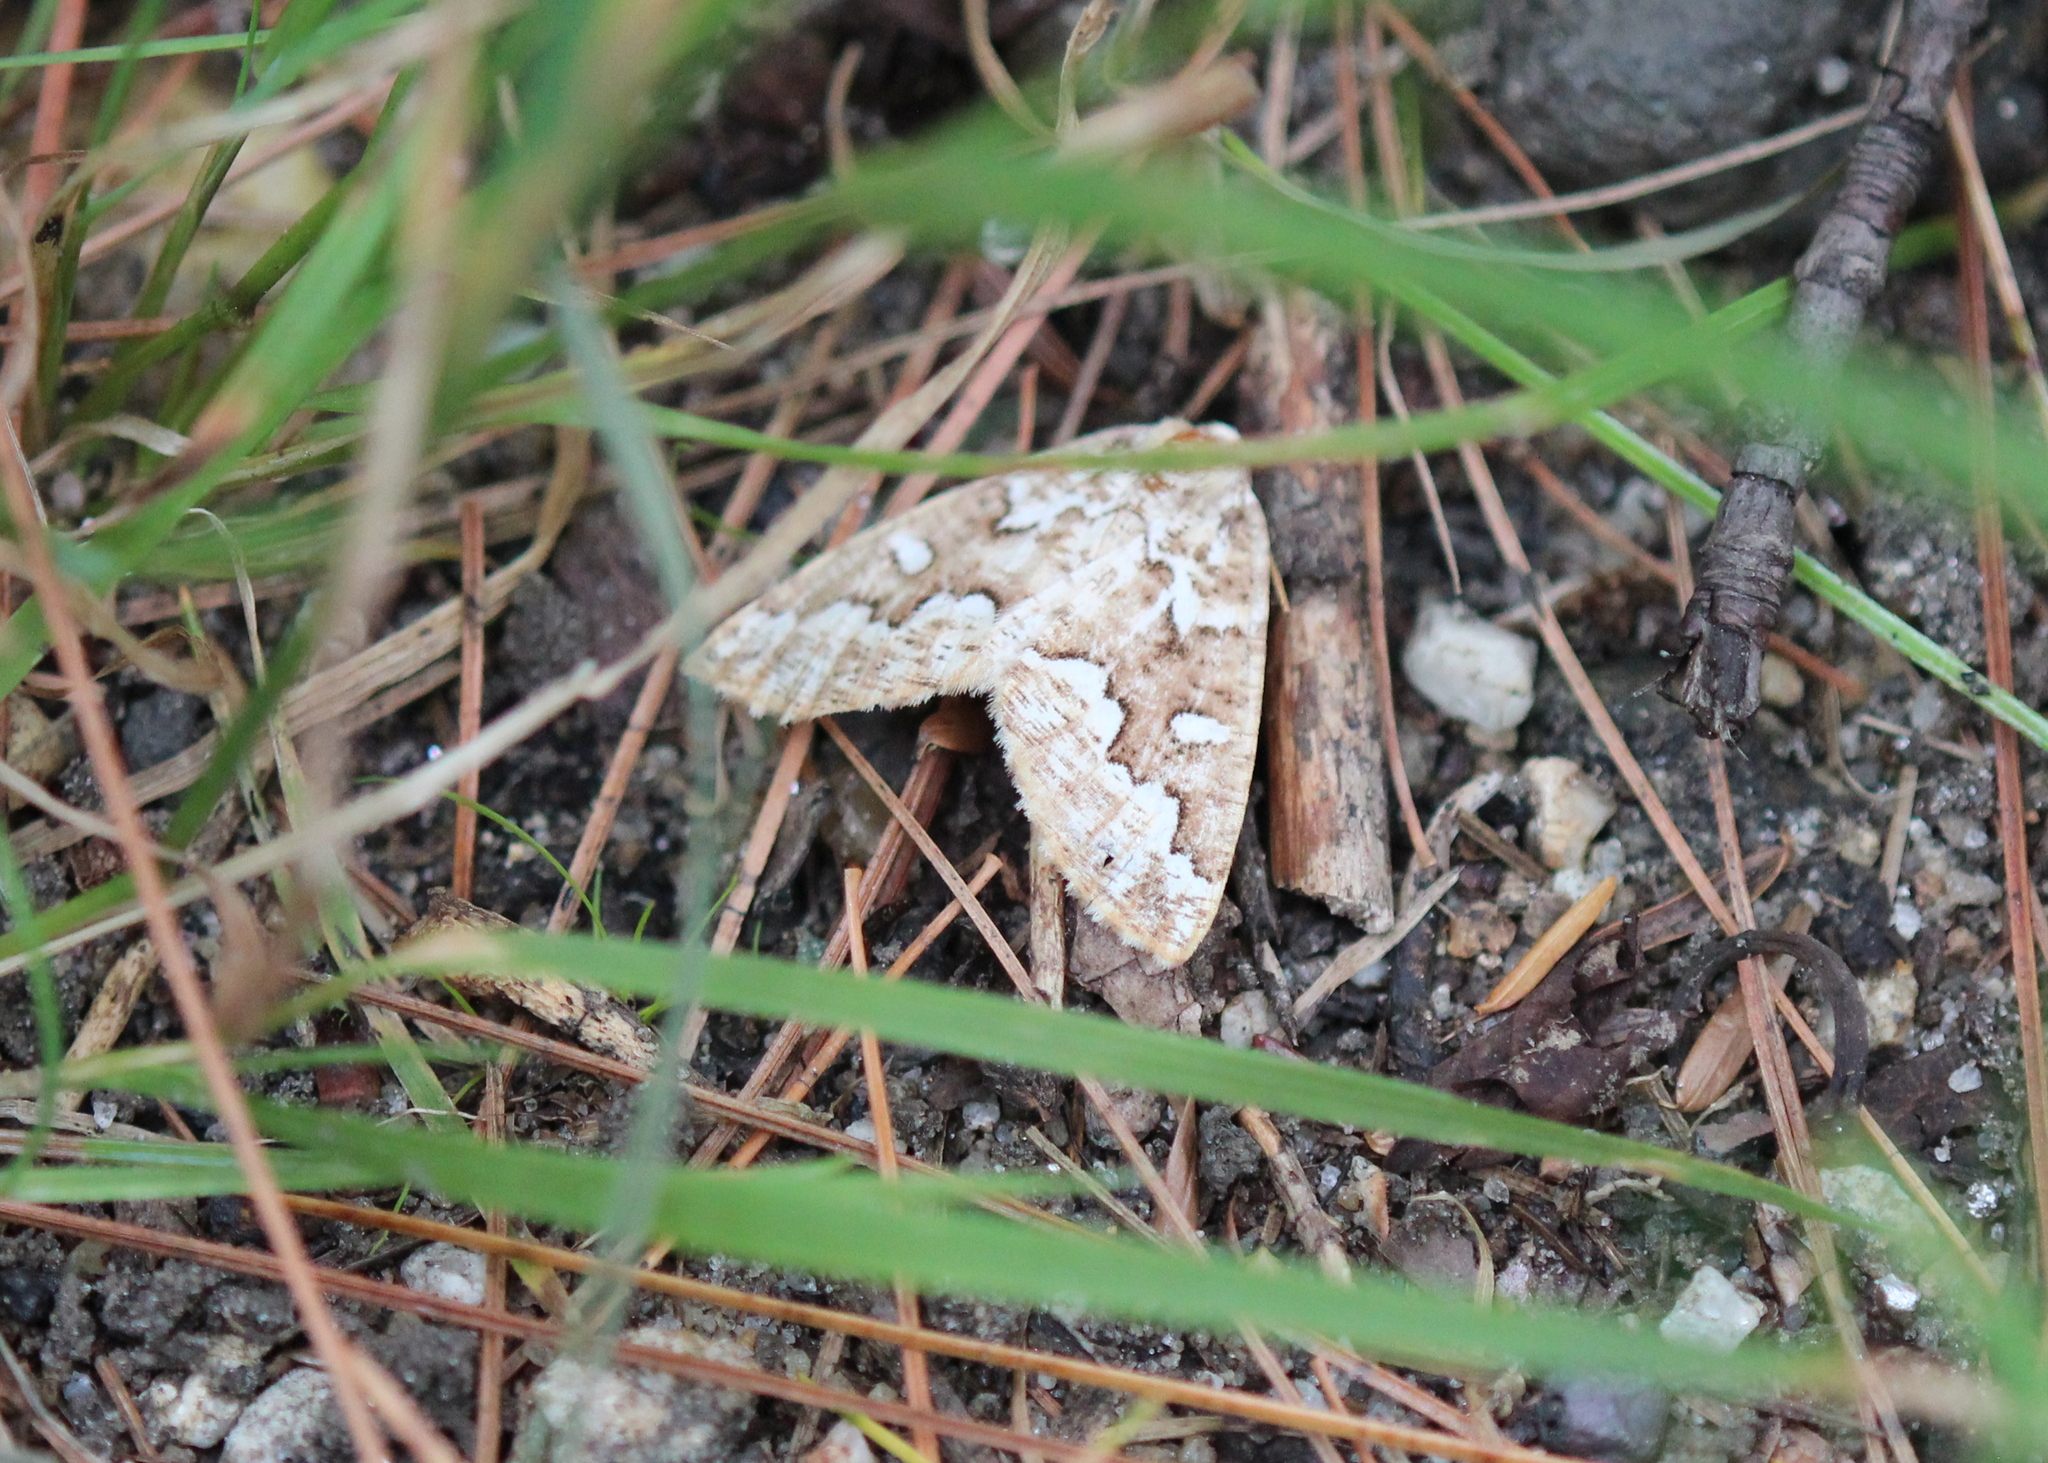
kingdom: Animalia
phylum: Arthropoda
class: Insecta
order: Lepidoptera
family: Geometridae
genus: Caripeta
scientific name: Caripeta divisata
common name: Gray spruce looper
